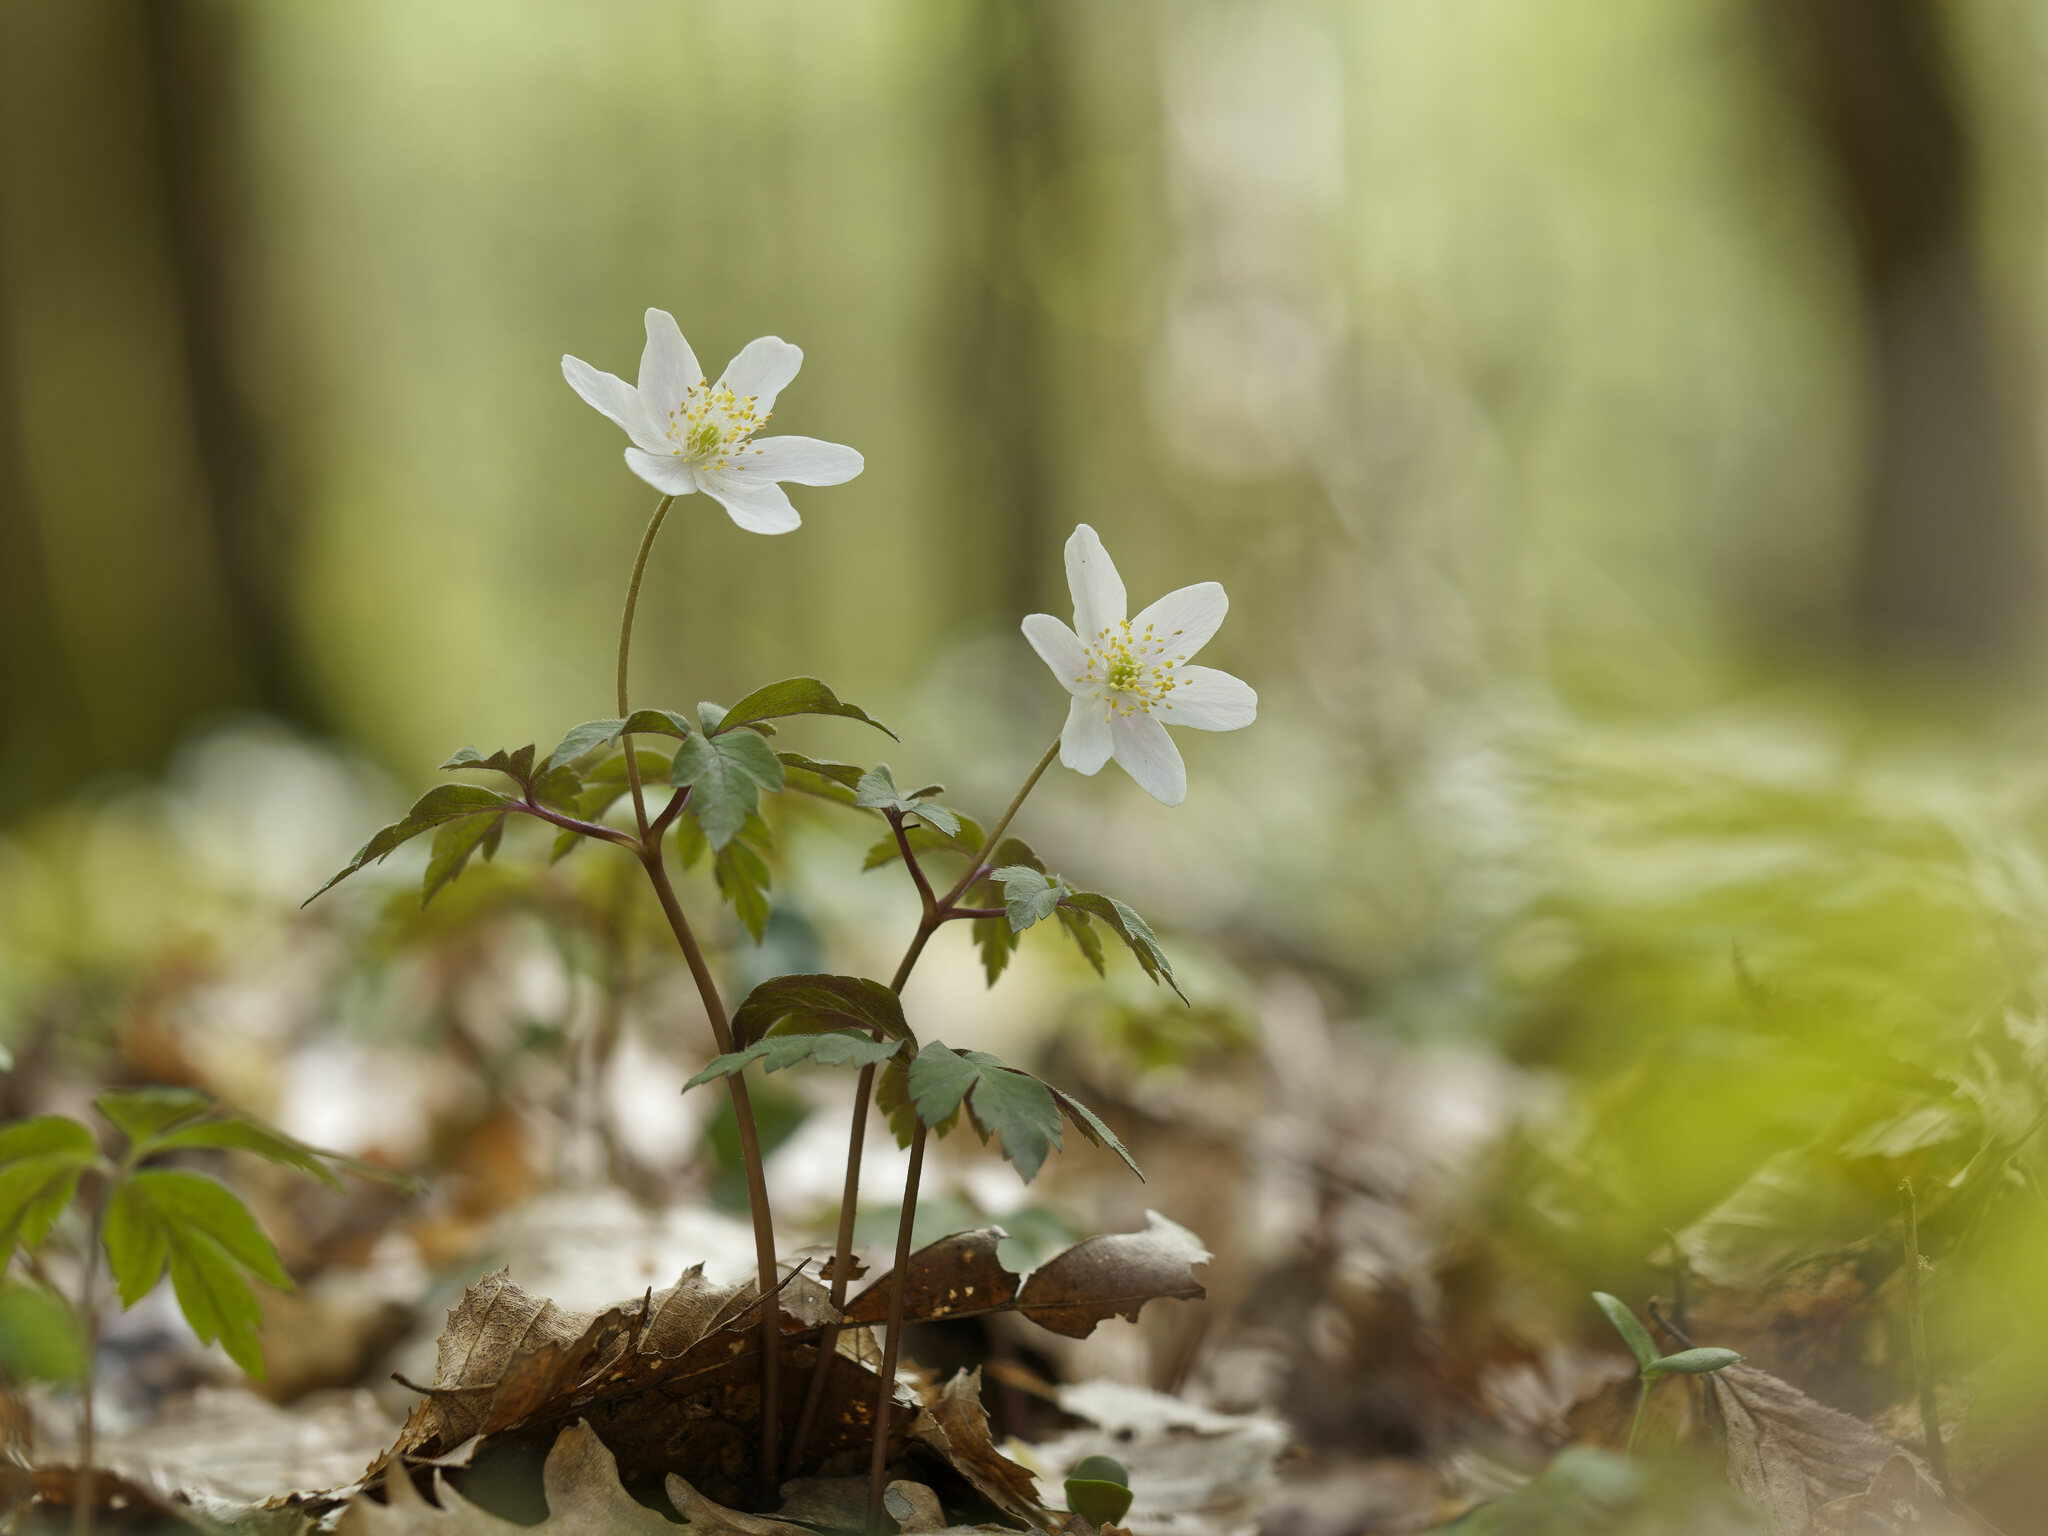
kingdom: Plantae
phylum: Tracheophyta
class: Magnoliopsida
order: Ranunculales
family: Ranunculaceae
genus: Anemone
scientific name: Anemone nemorosa
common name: Wood anemone
